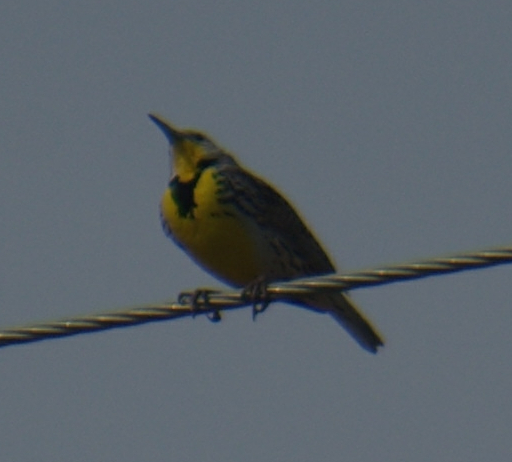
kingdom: Animalia
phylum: Chordata
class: Aves
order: Passeriformes
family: Icteridae
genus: Sturnella
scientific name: Sturnella neglecta
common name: Western meadowlark
